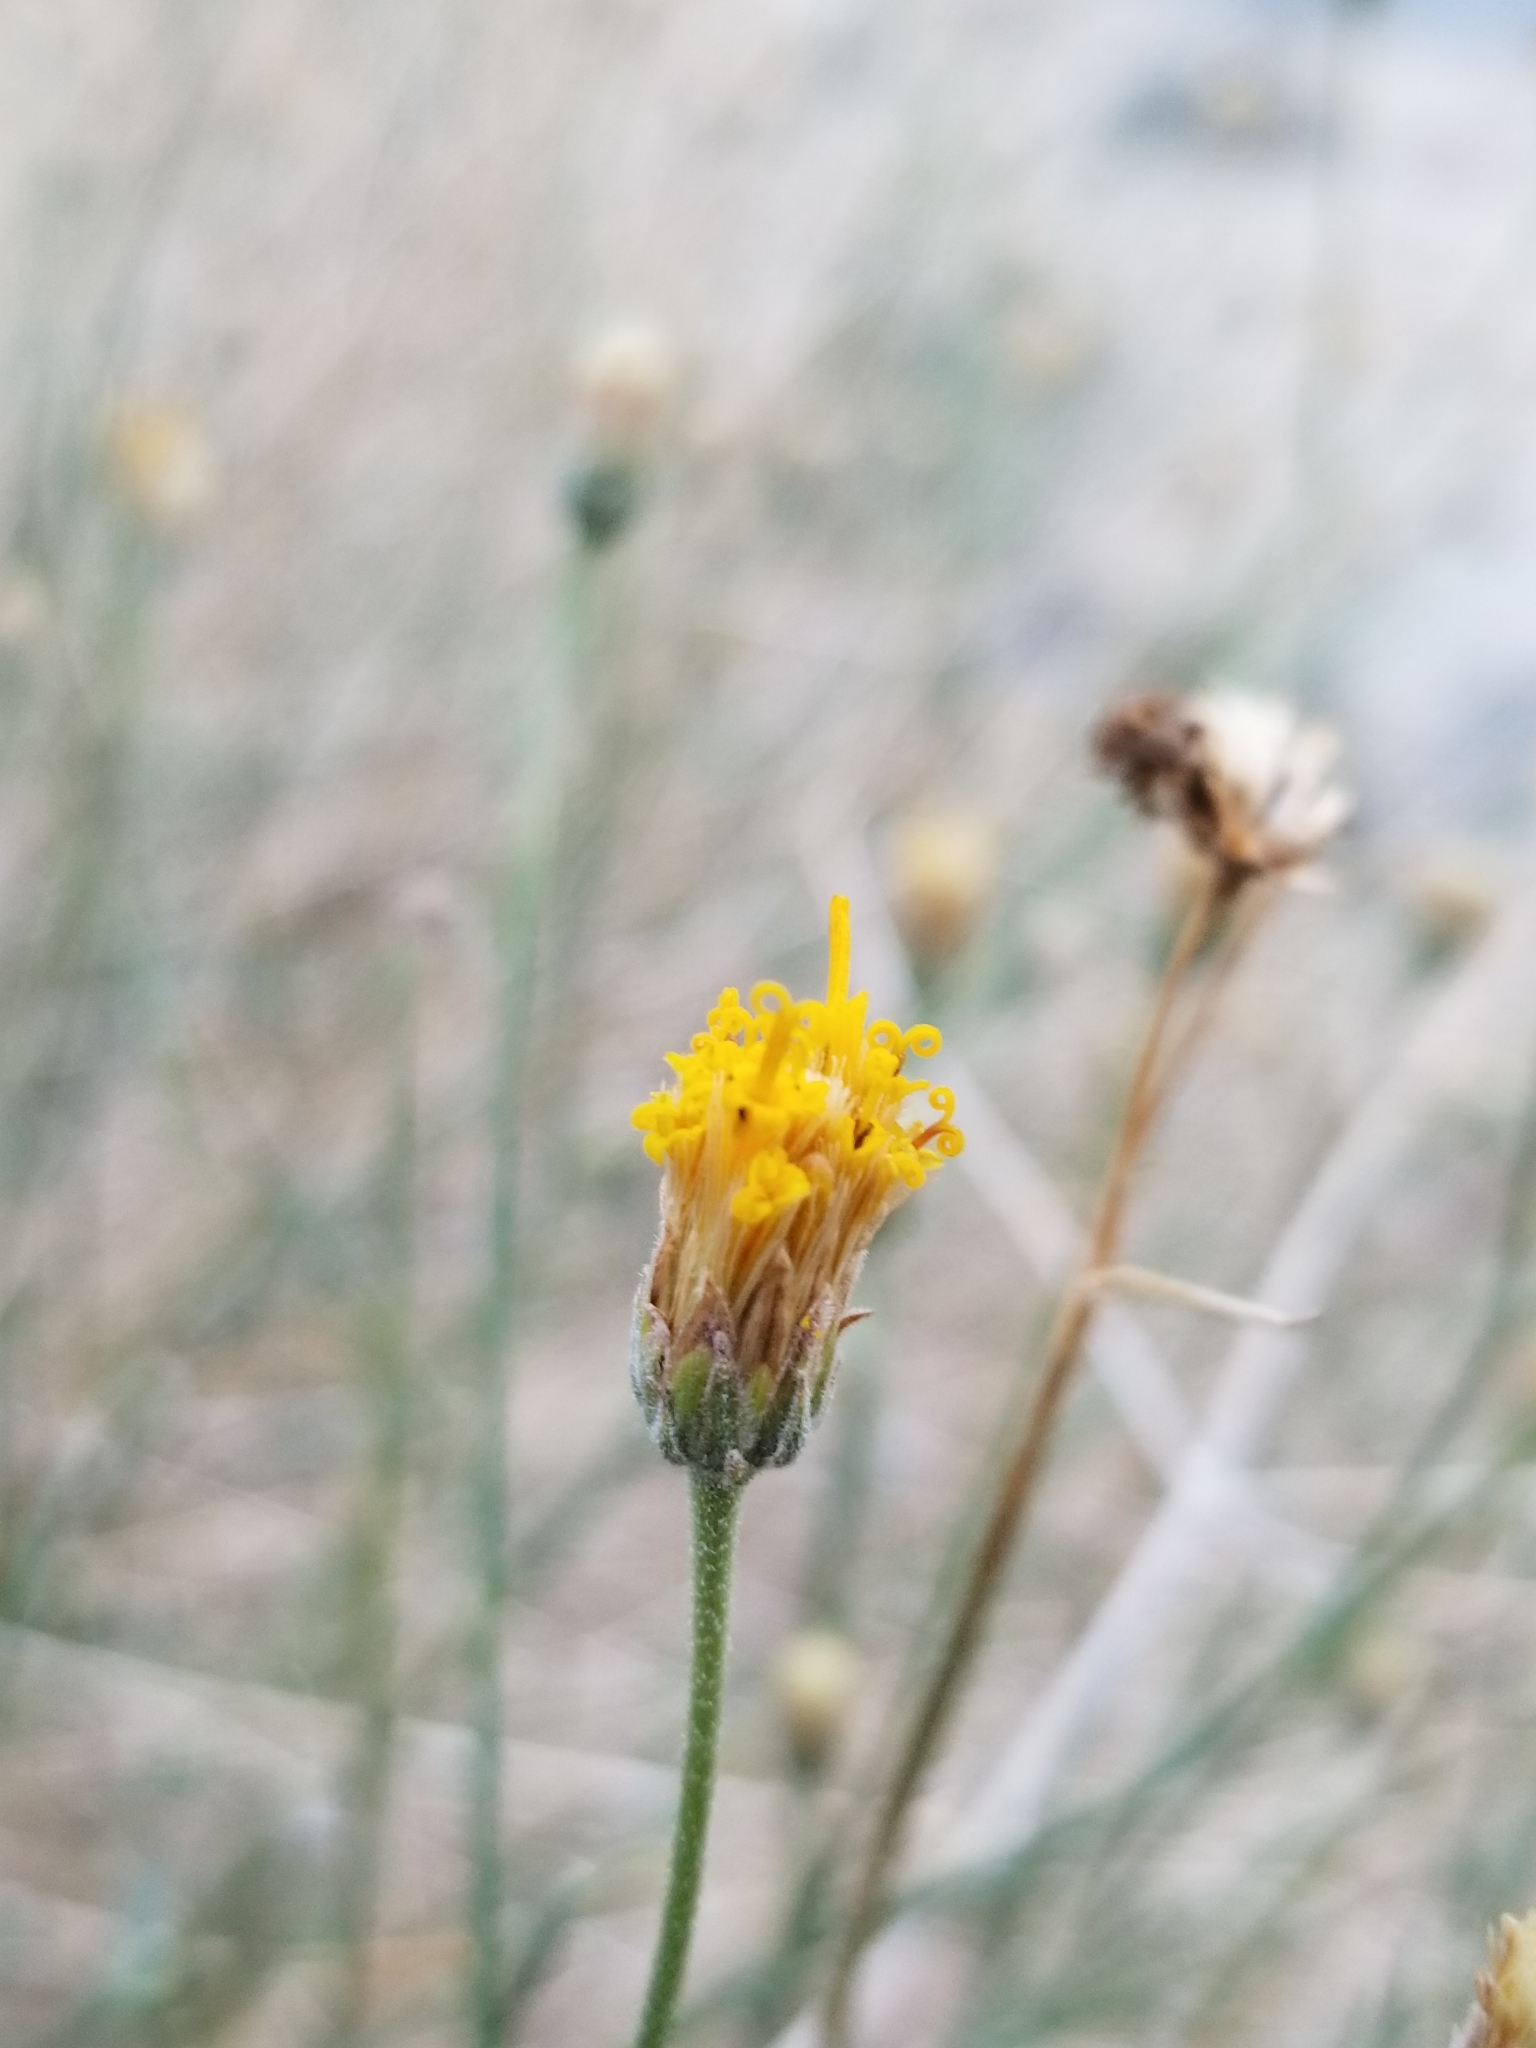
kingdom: Plantae
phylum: Tracheophyta
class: Magnoliopsida
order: Asterales
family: Asteraceae
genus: Bebbia
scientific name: Bebbia juncea
